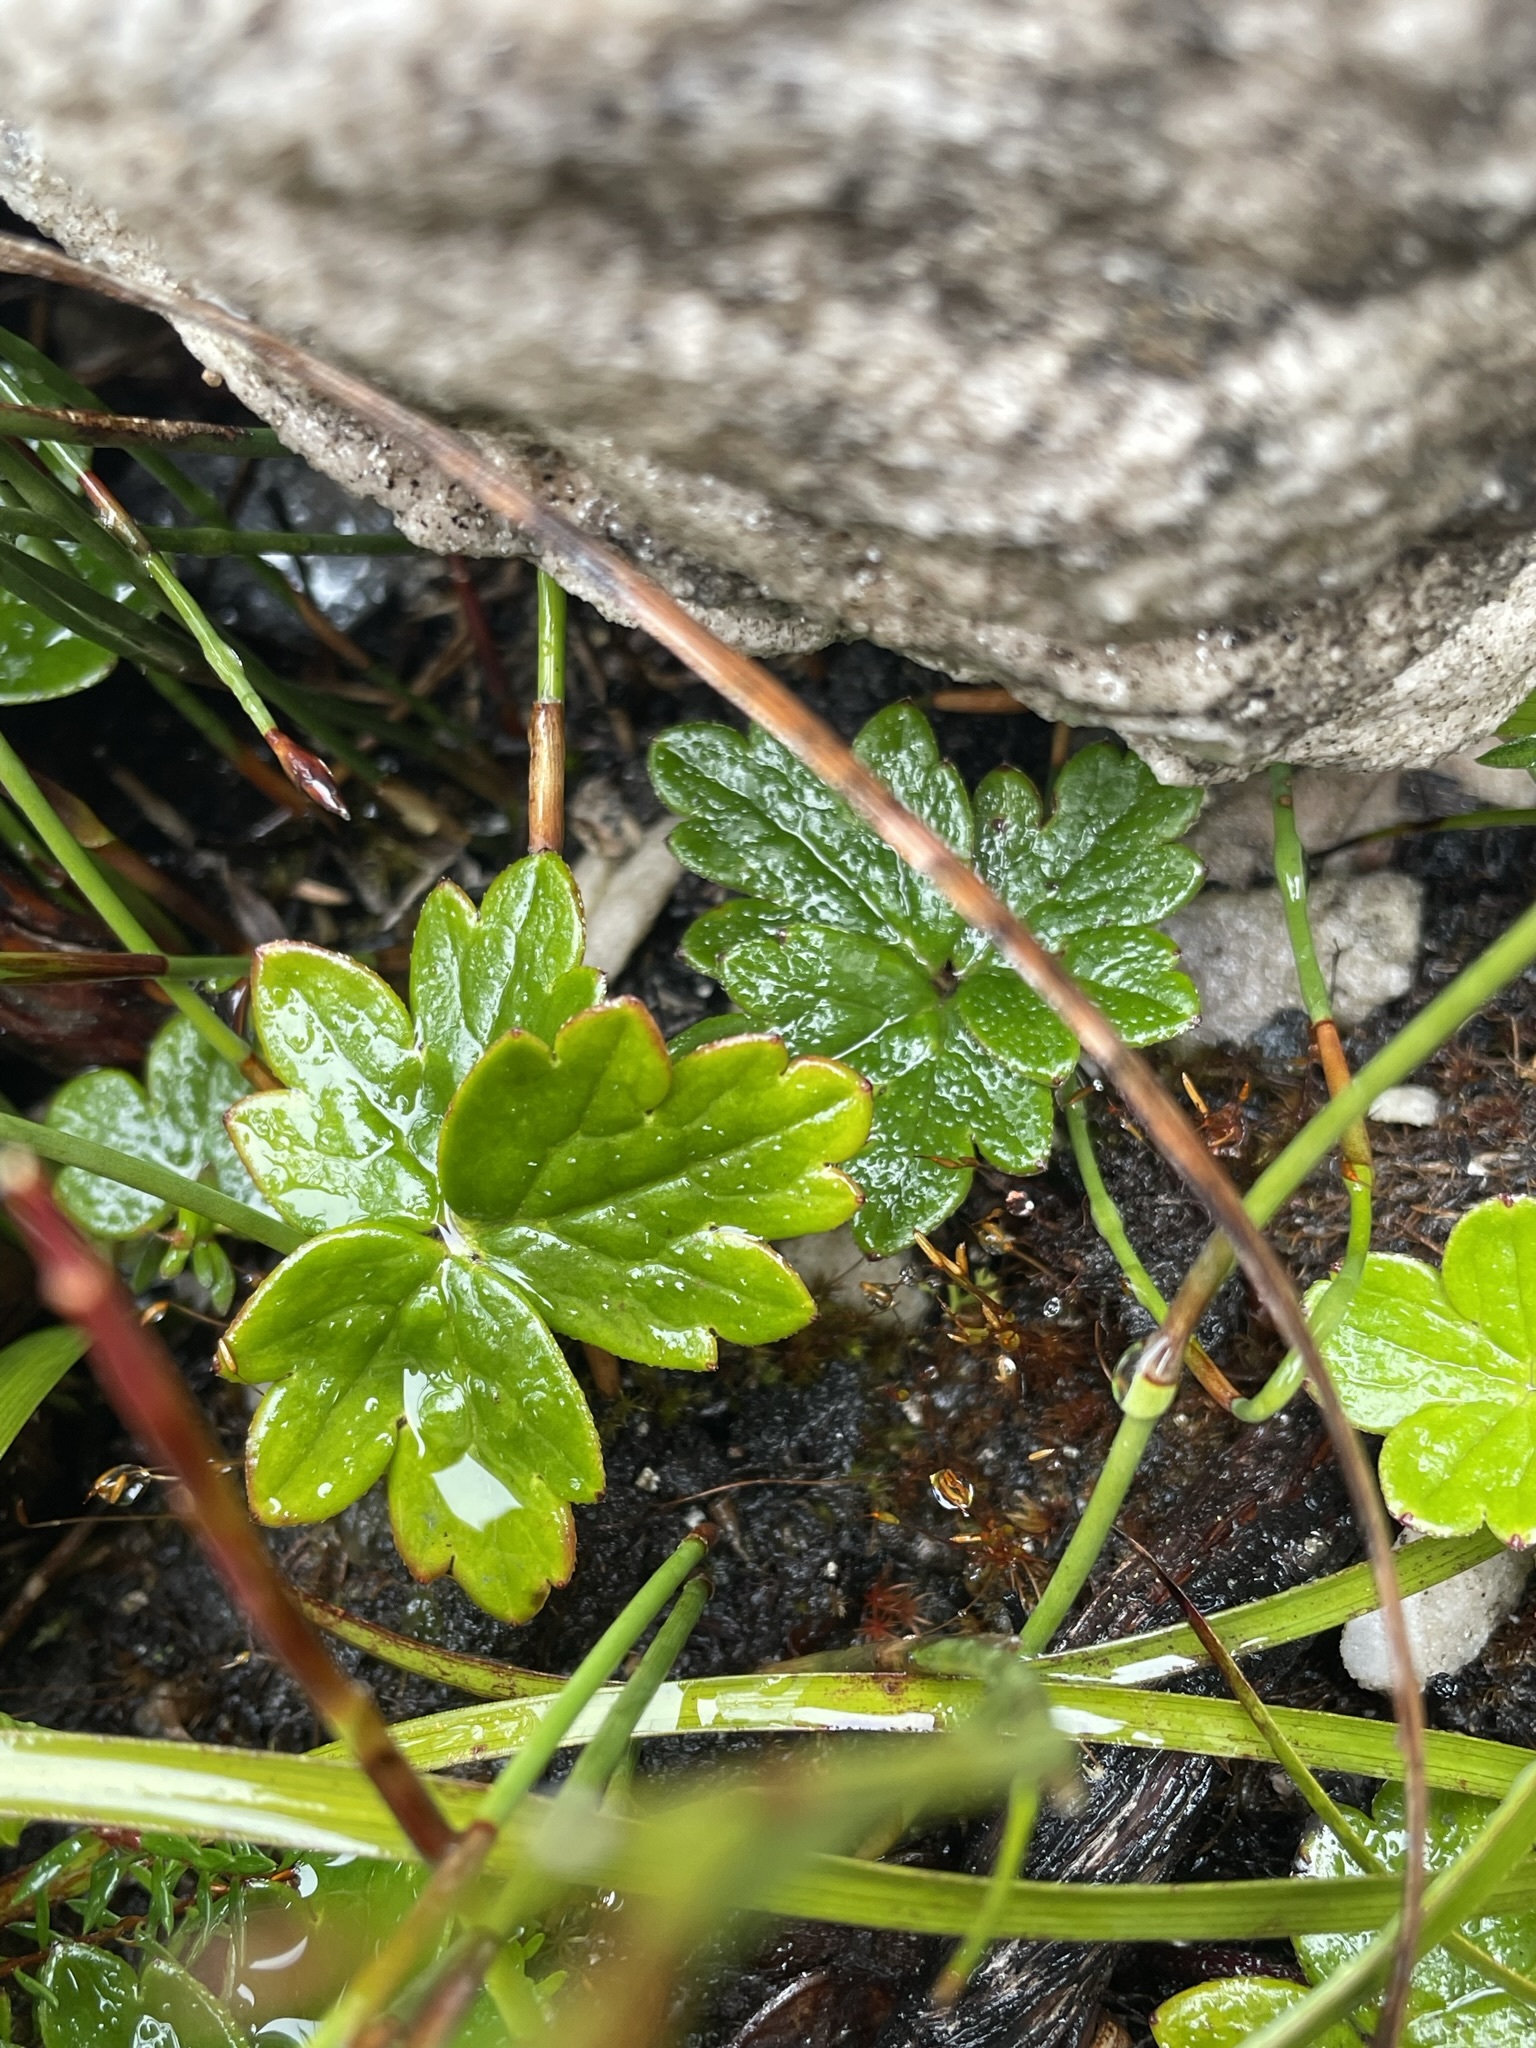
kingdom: Plantae
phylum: Tracheophyta
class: Magnoliopsida
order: Ranunculales
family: Ranunculaceae
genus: Knowltonia
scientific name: Knowltonia crassifolia
